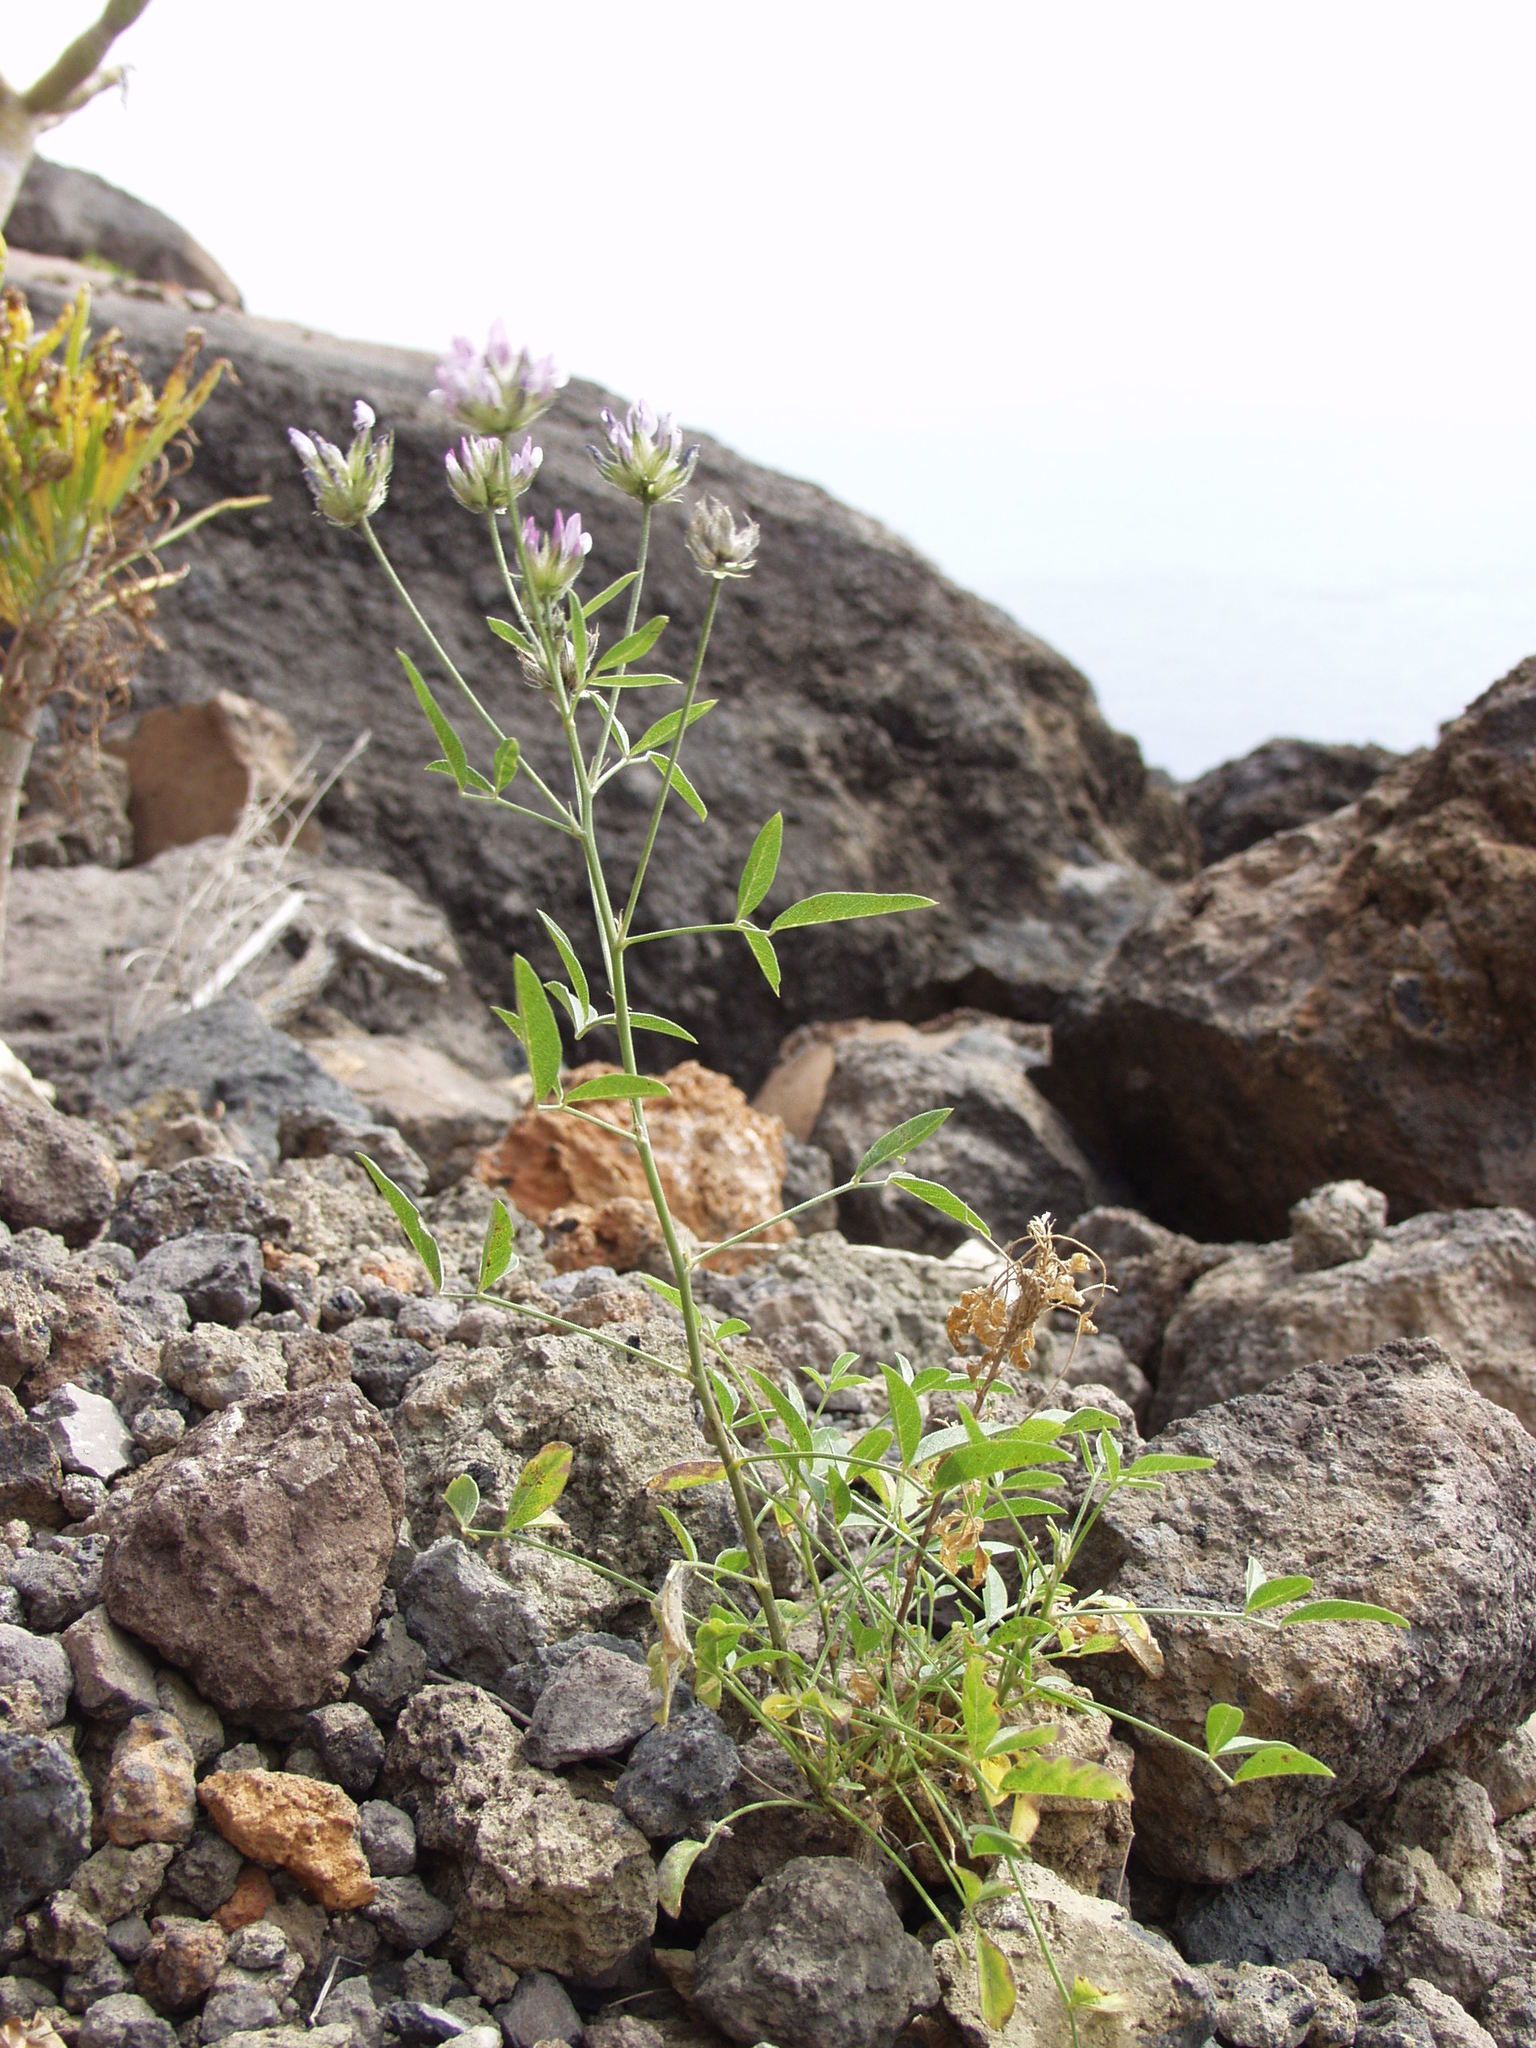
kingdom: Plantae
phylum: Tracheophyta
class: Magnoliopsida
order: Fabales
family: Fabaceae
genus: Bituminaria
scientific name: Bituminaria bituminosa
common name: Arabian pea
